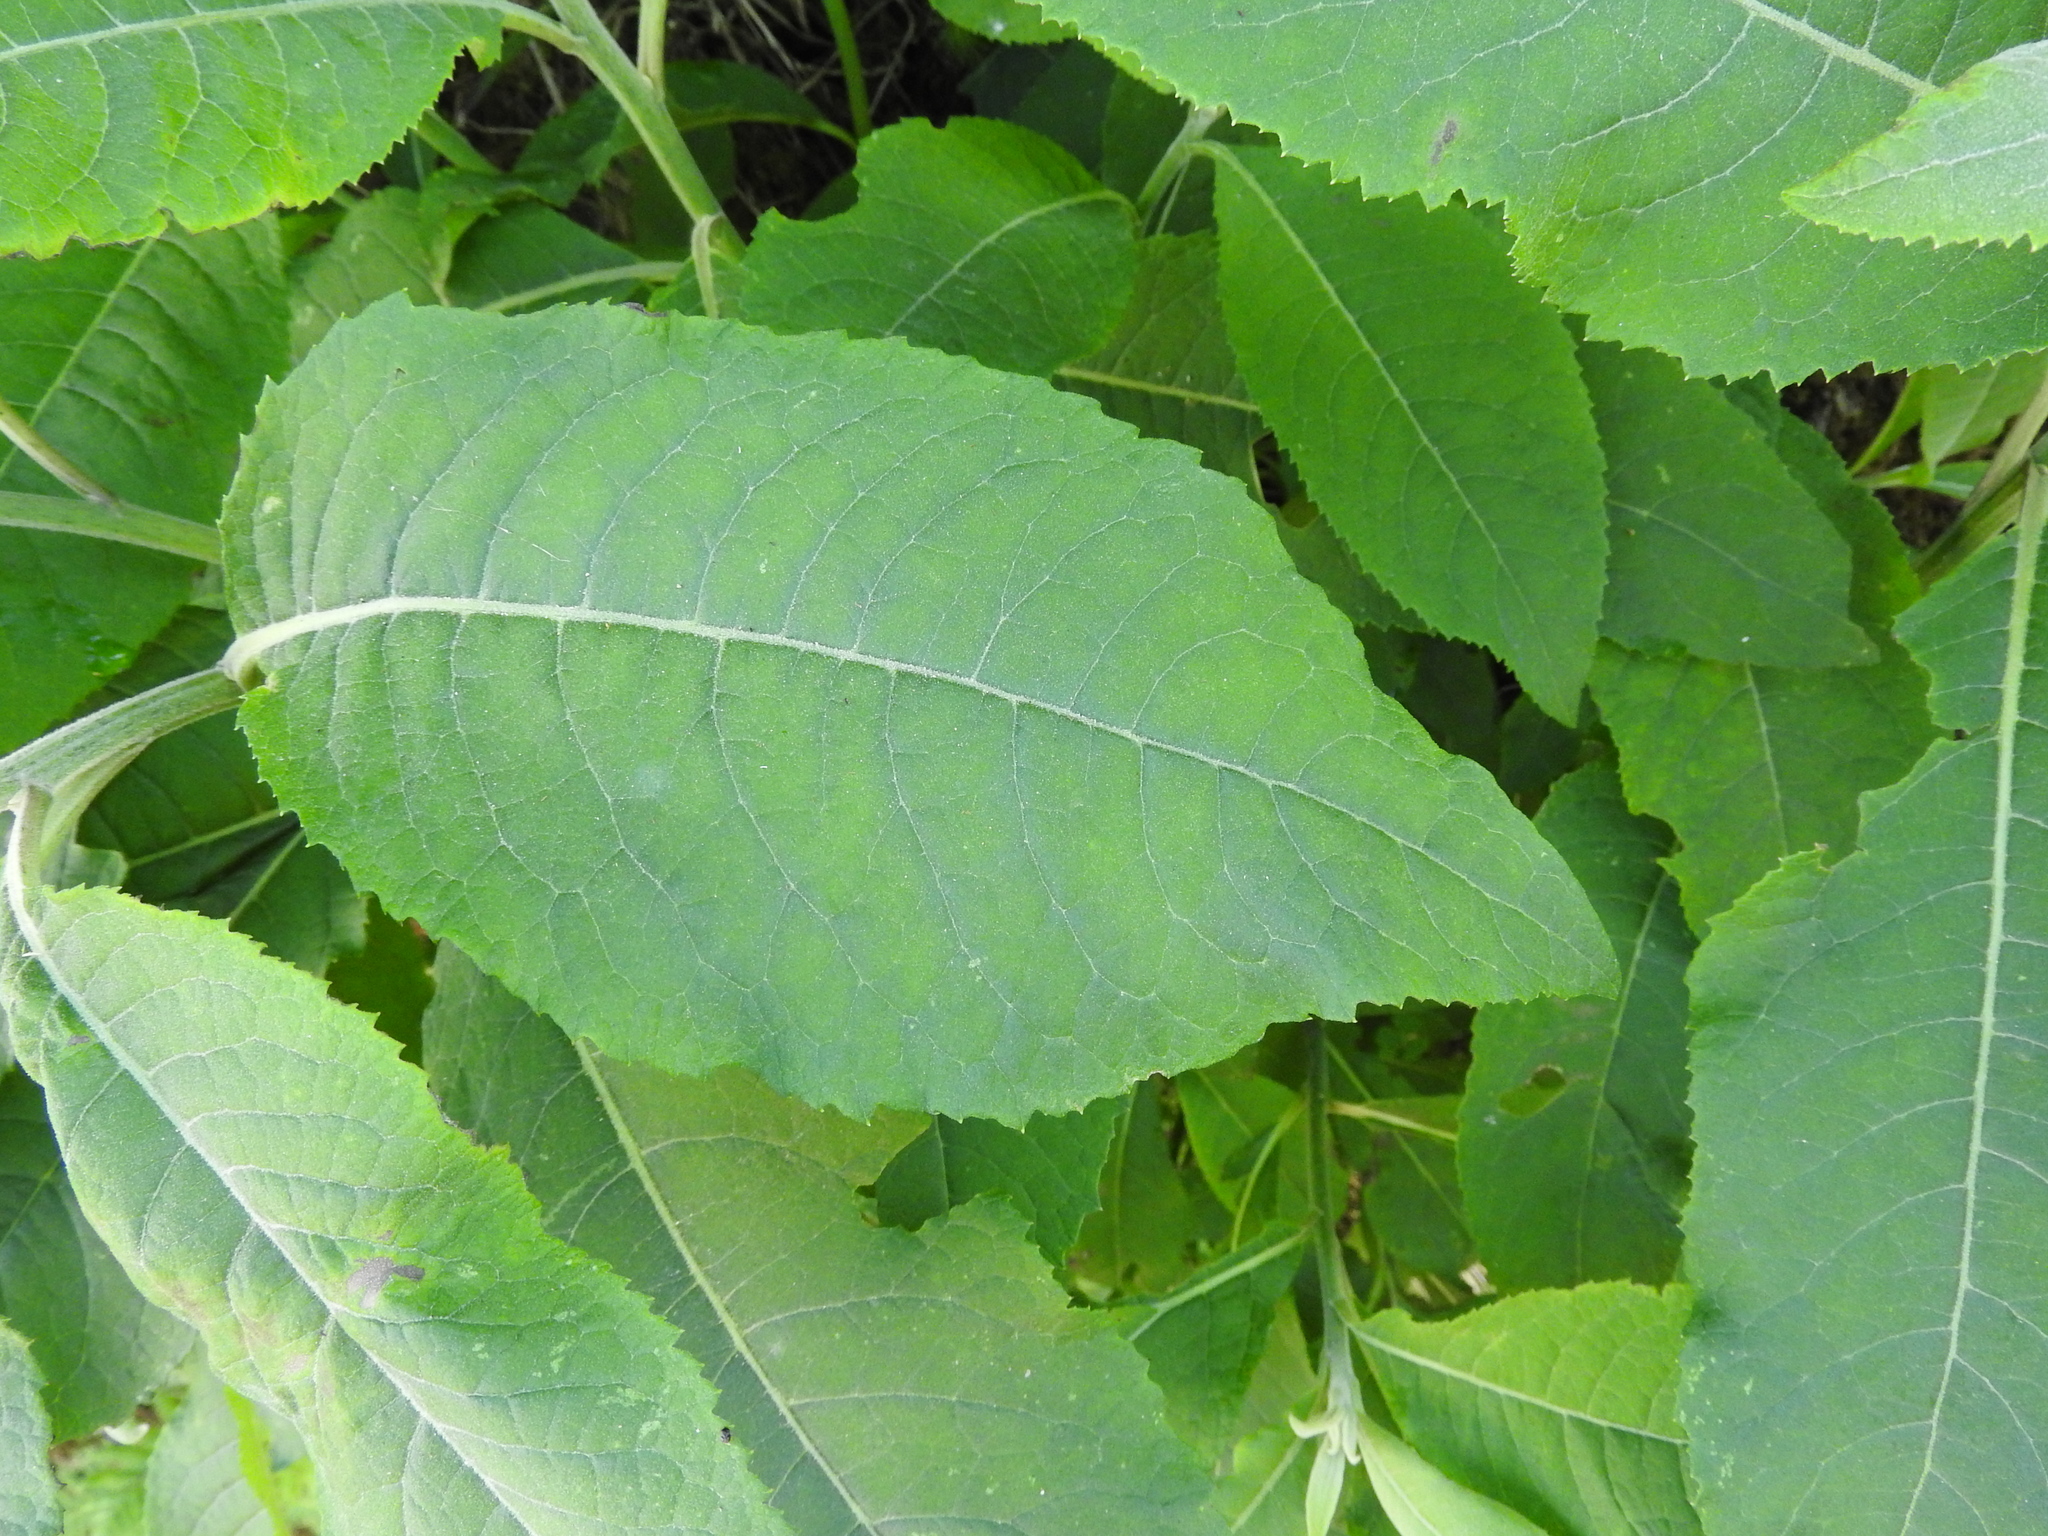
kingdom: Plantae
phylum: Tracheophyta
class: Magnoliopsida
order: Lamiales
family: Scrophulariaceae
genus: Buddleja
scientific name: Buddleja cordata
